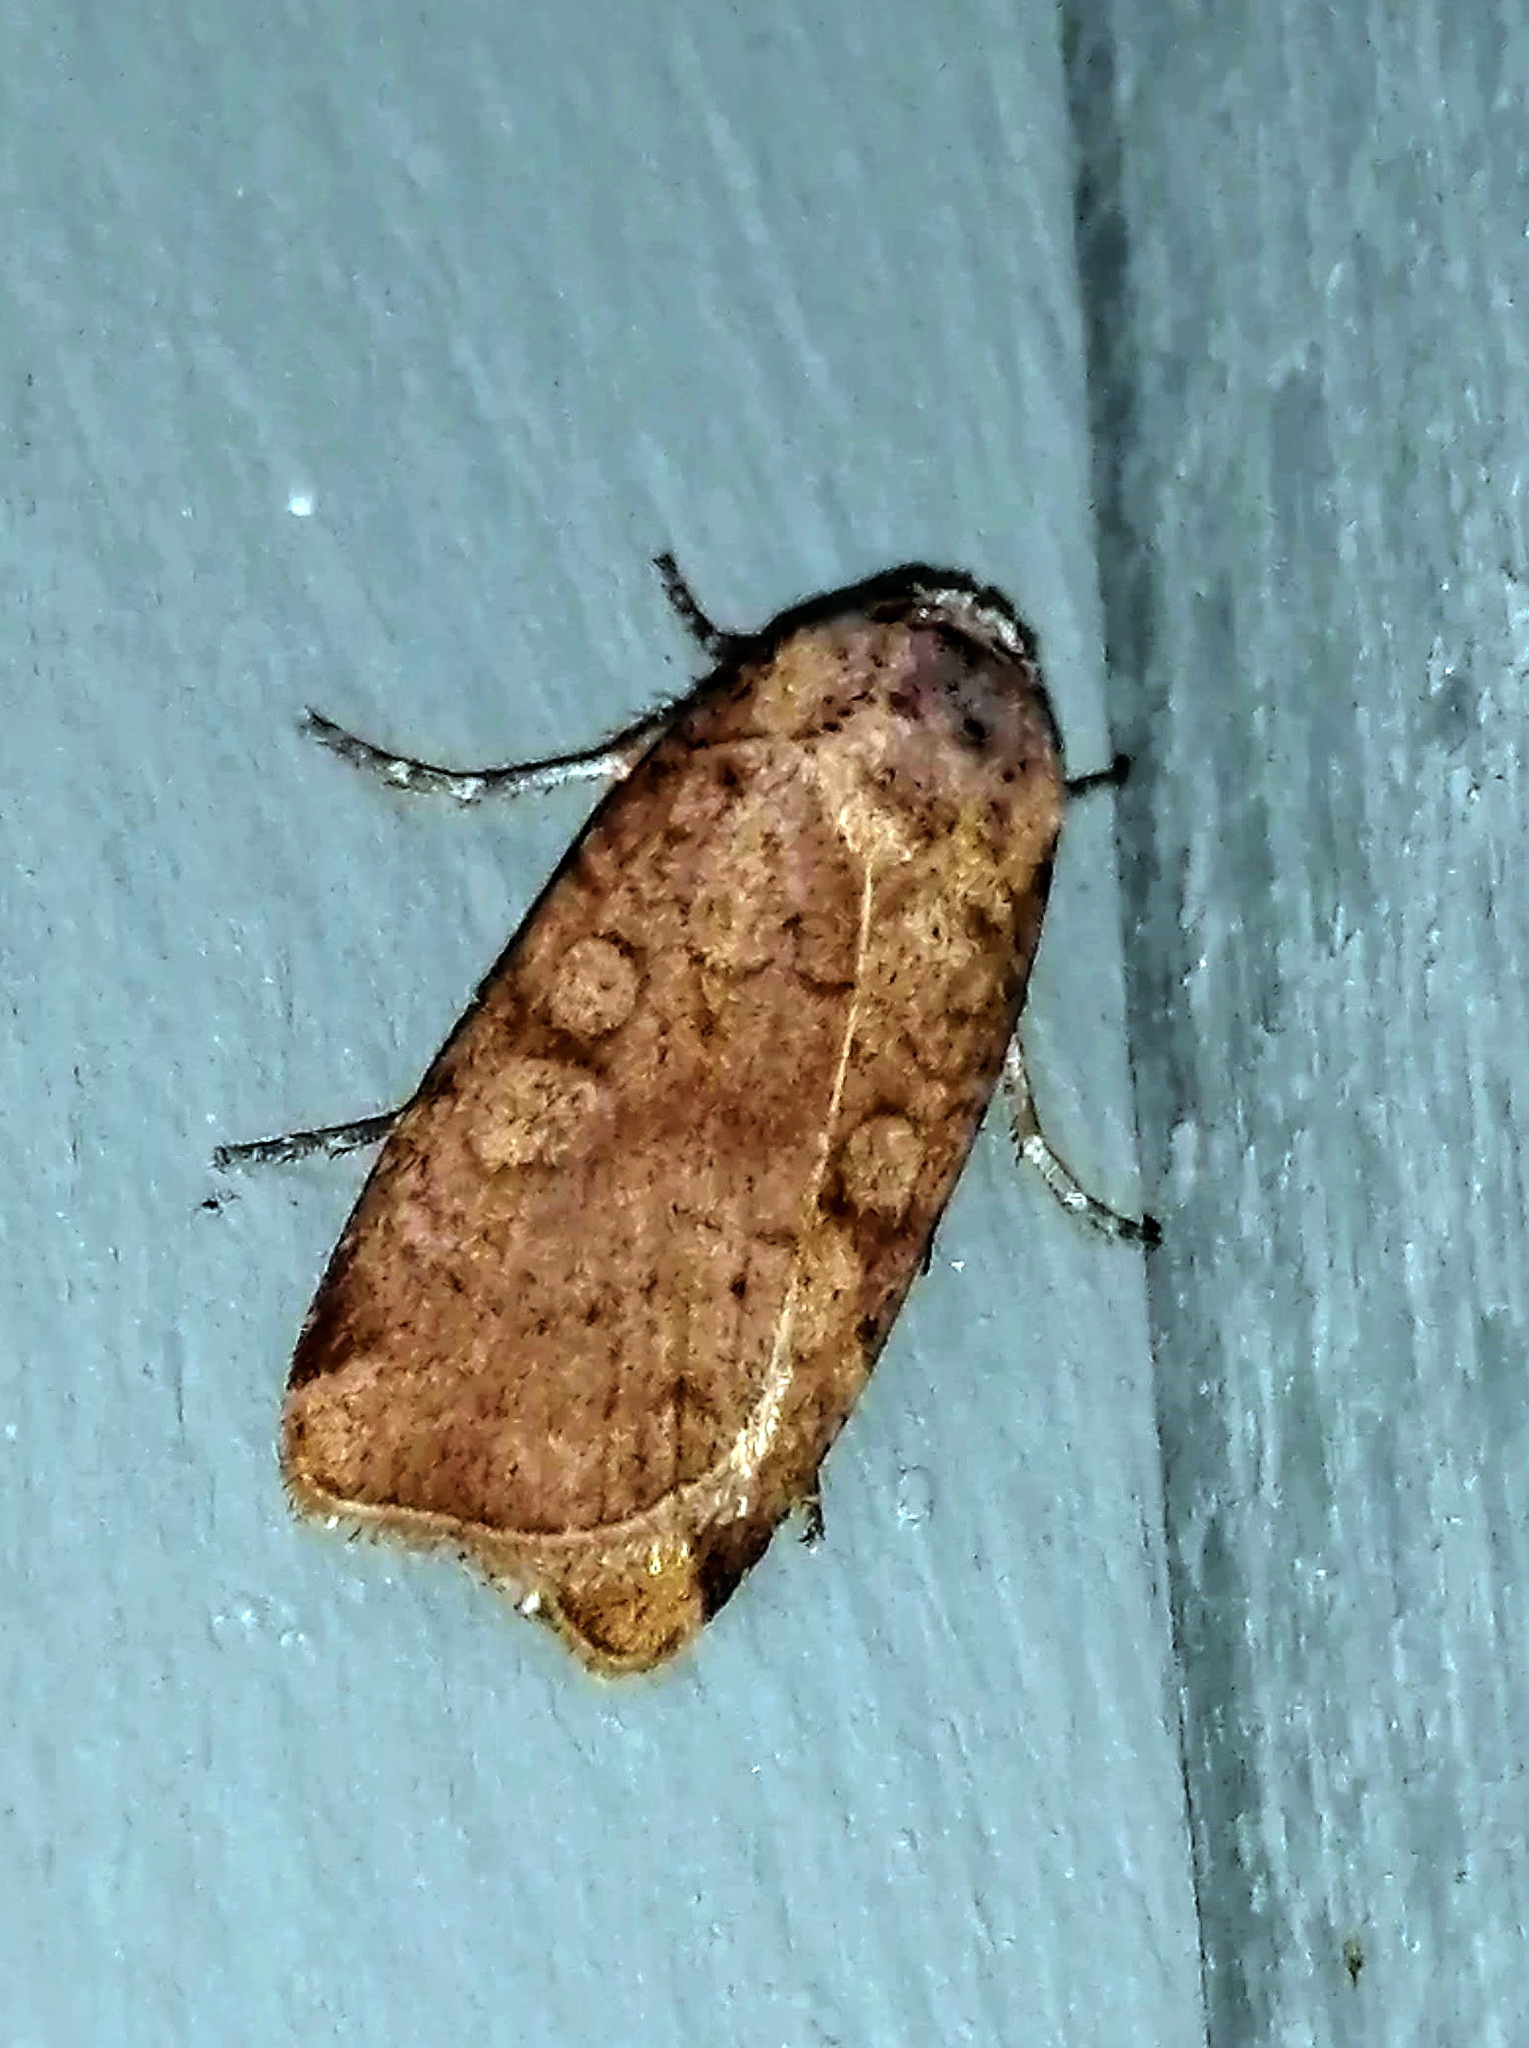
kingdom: Animalia
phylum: Arthropoda
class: Insecta
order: Lepidoptera
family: Noctuidae
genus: Protolampra
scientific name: Protolampra brunneicollis
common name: Brown-collared dart
